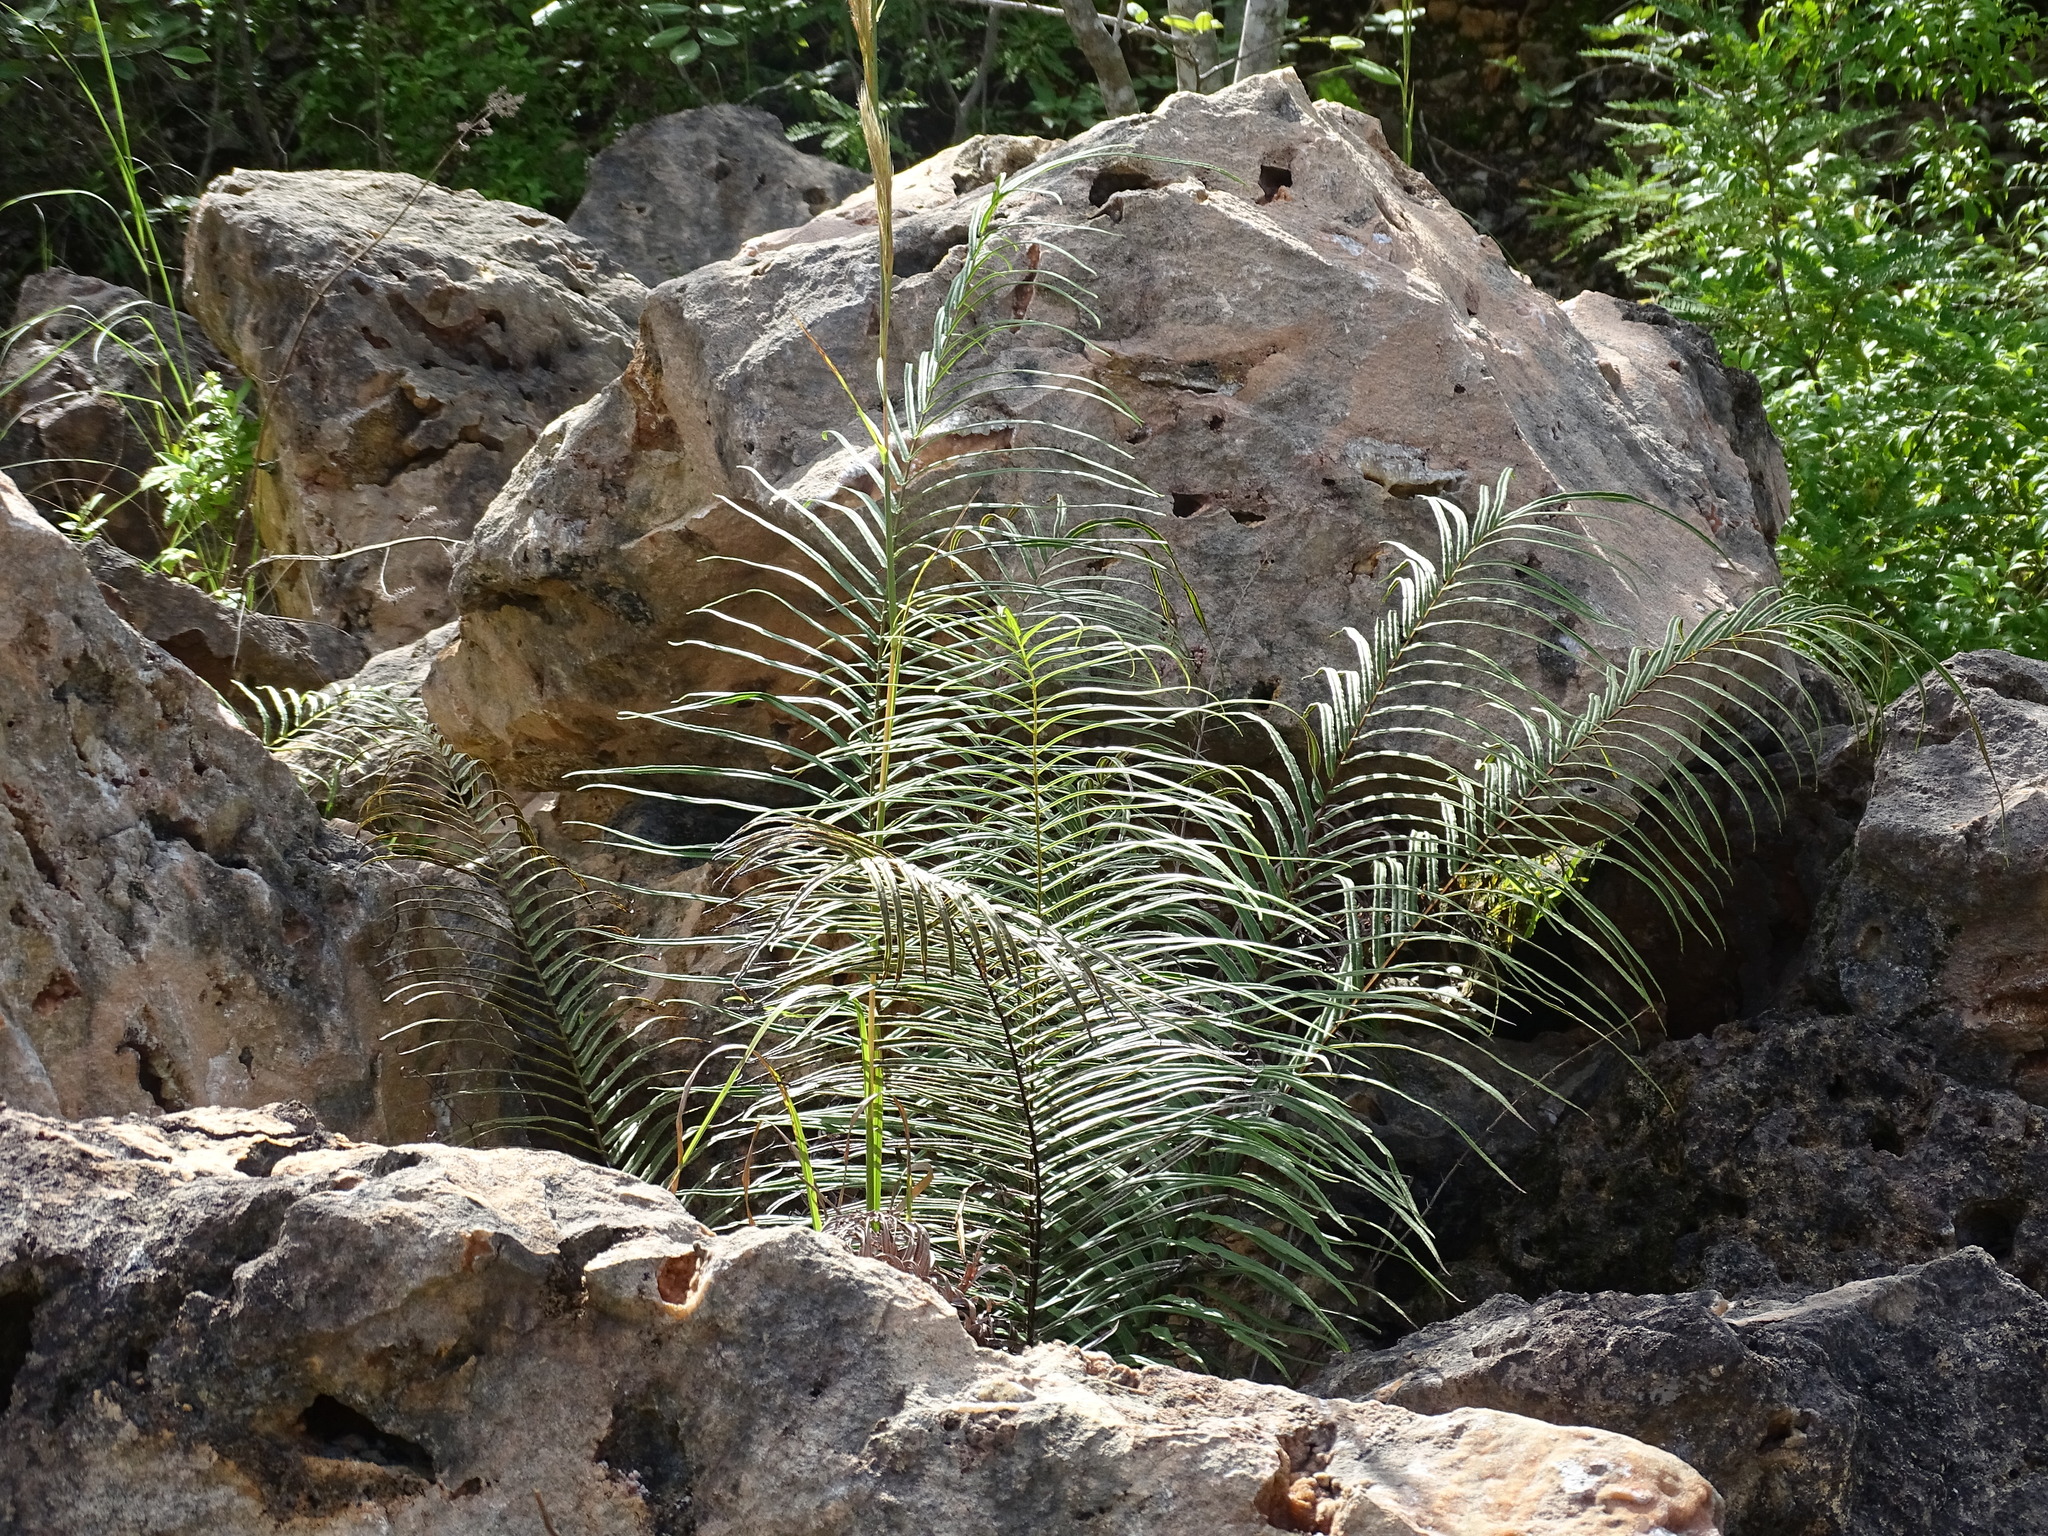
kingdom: Plantae
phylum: Tracheophyta
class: Polypodiopsida
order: Polypodiales
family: Pteridaceae
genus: Pteris
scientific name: Pteris longifolia
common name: Longleaf brake
